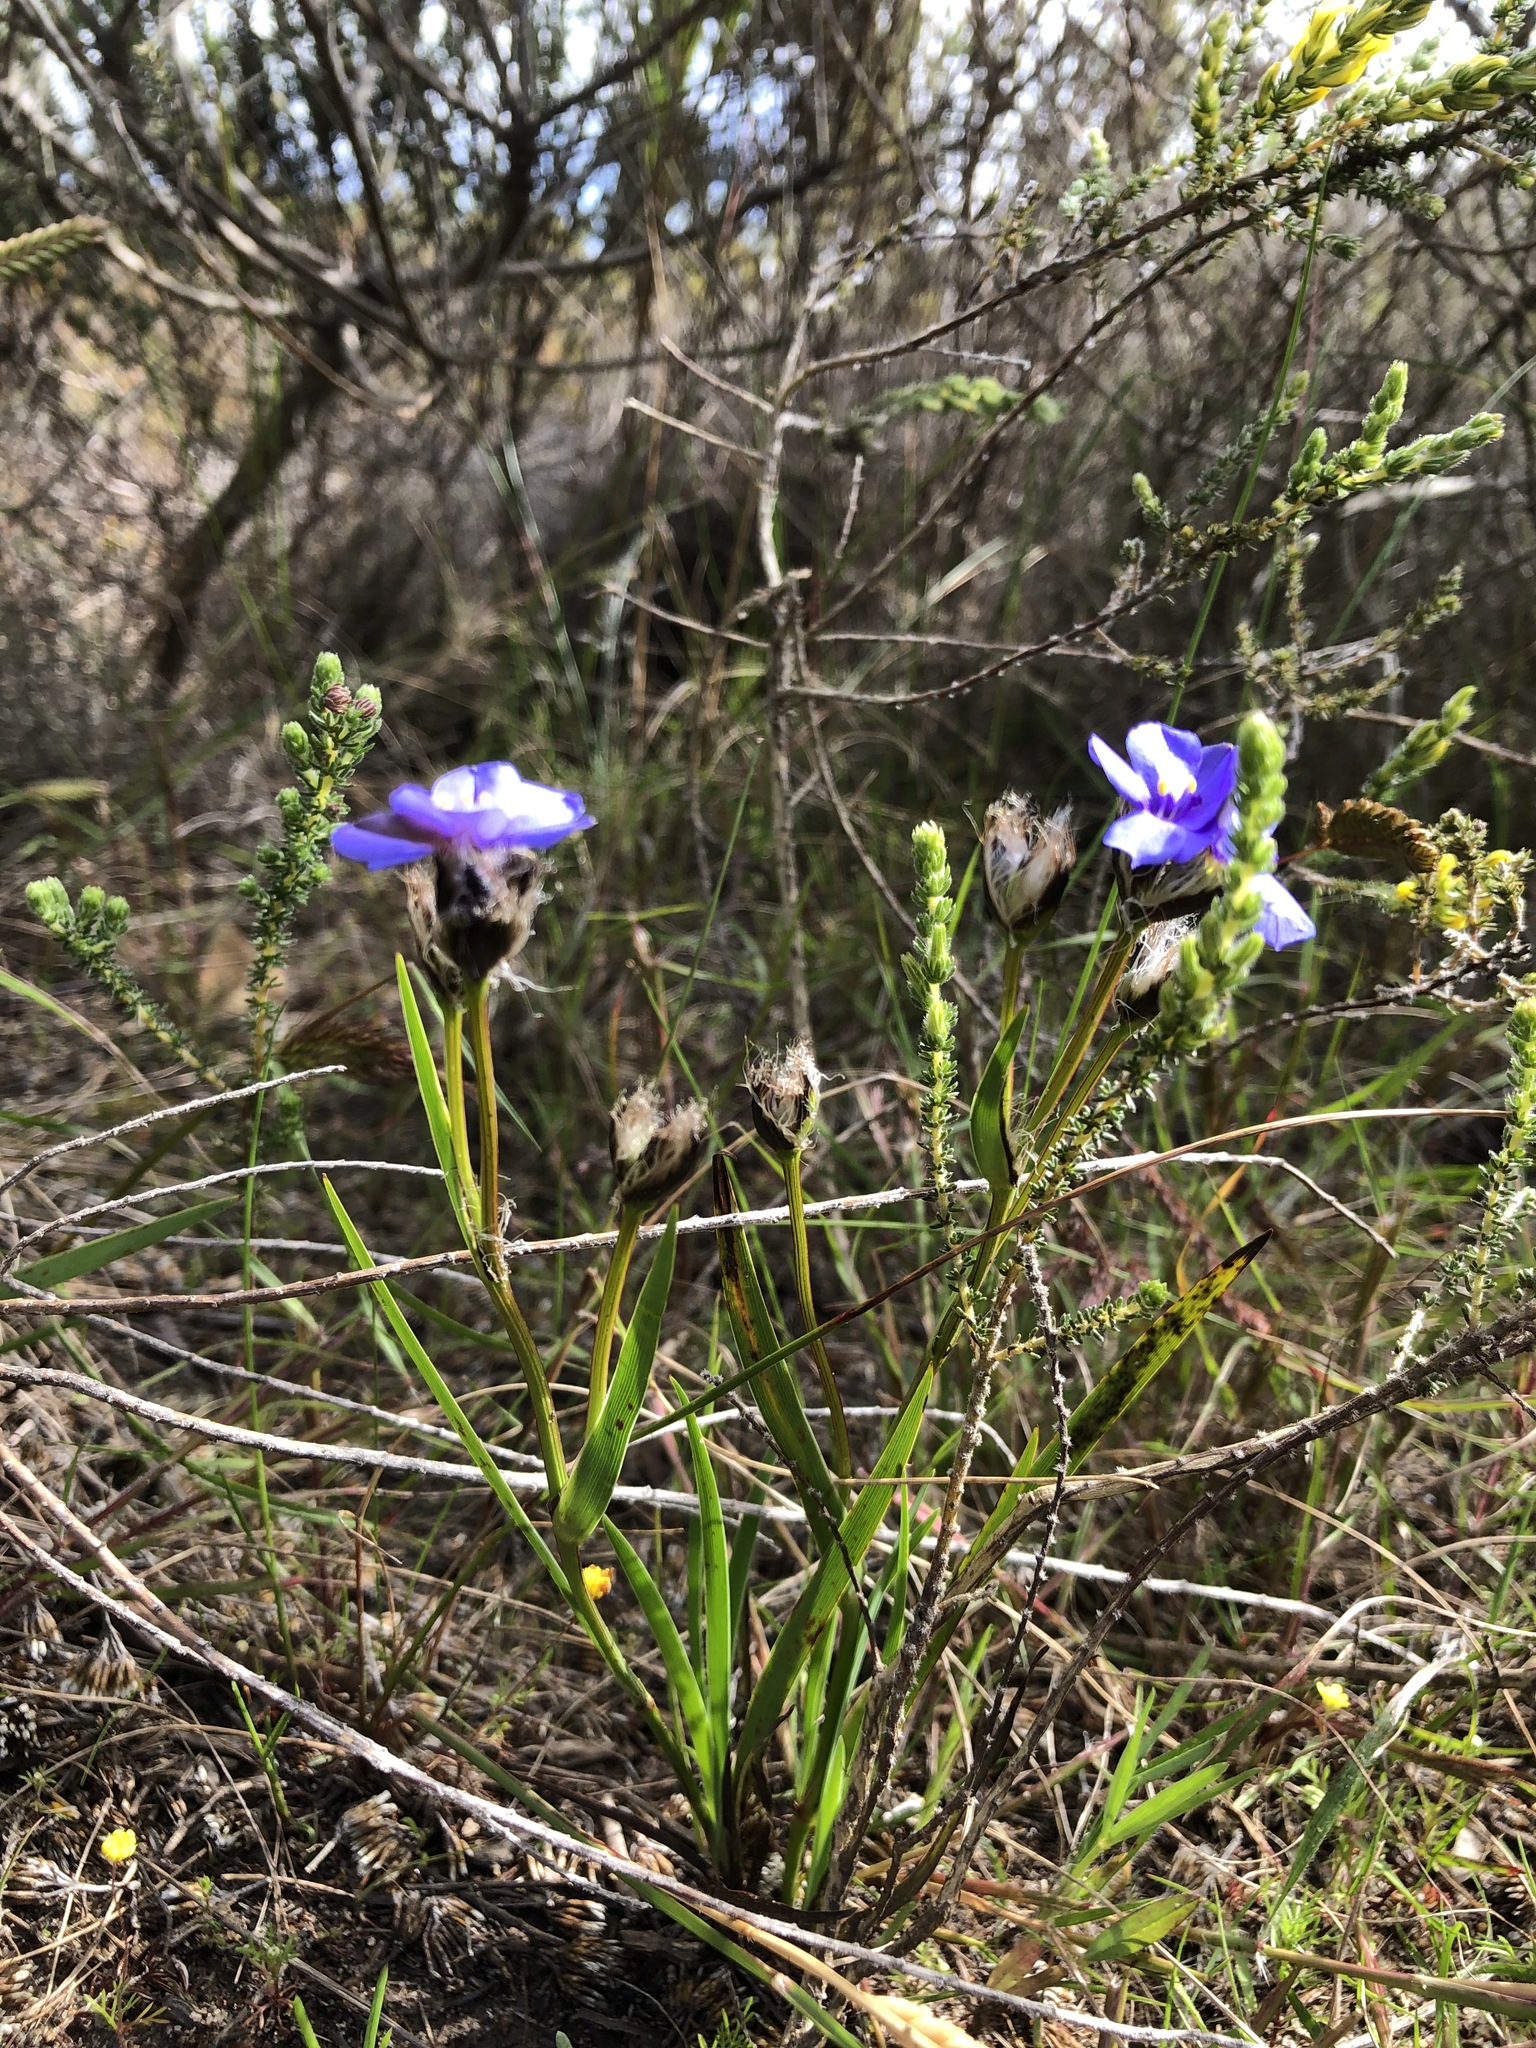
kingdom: Plantae
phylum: Tracheophyta
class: Liliopsida
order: Asparagales
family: Iridaceae
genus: Aristea
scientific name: Aristea africana
